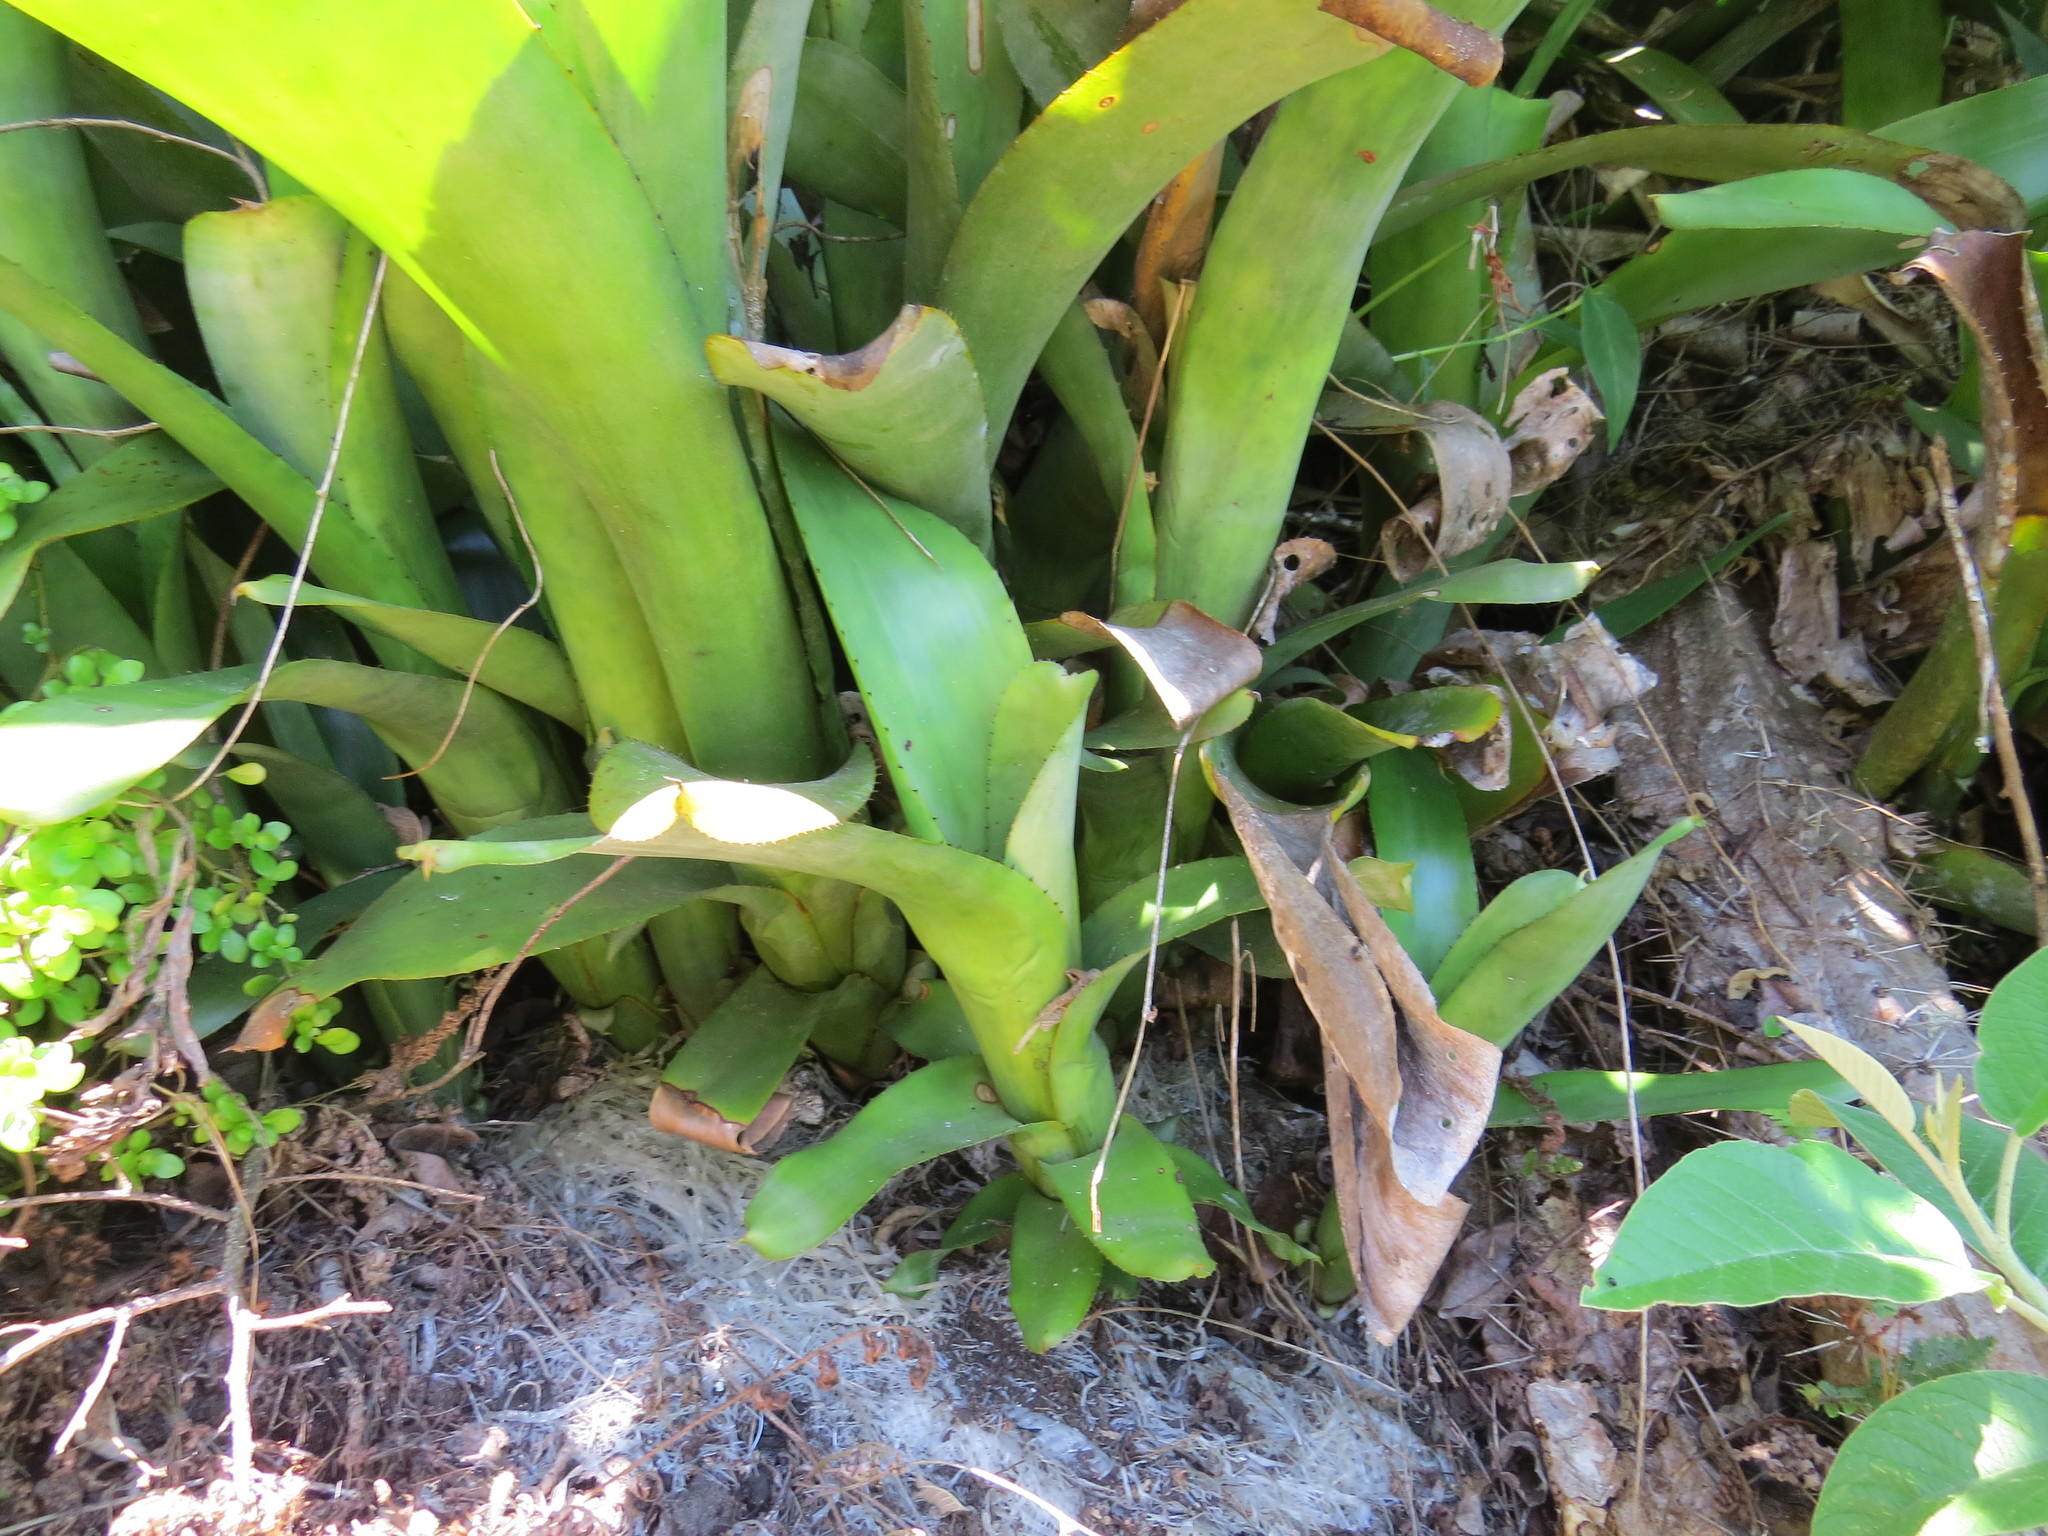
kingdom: Plantae
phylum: Tracheophyta
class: Liliopsida
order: Poales
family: Bromeliaceae
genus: Aechmea
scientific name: Aechmea nudicaulis
